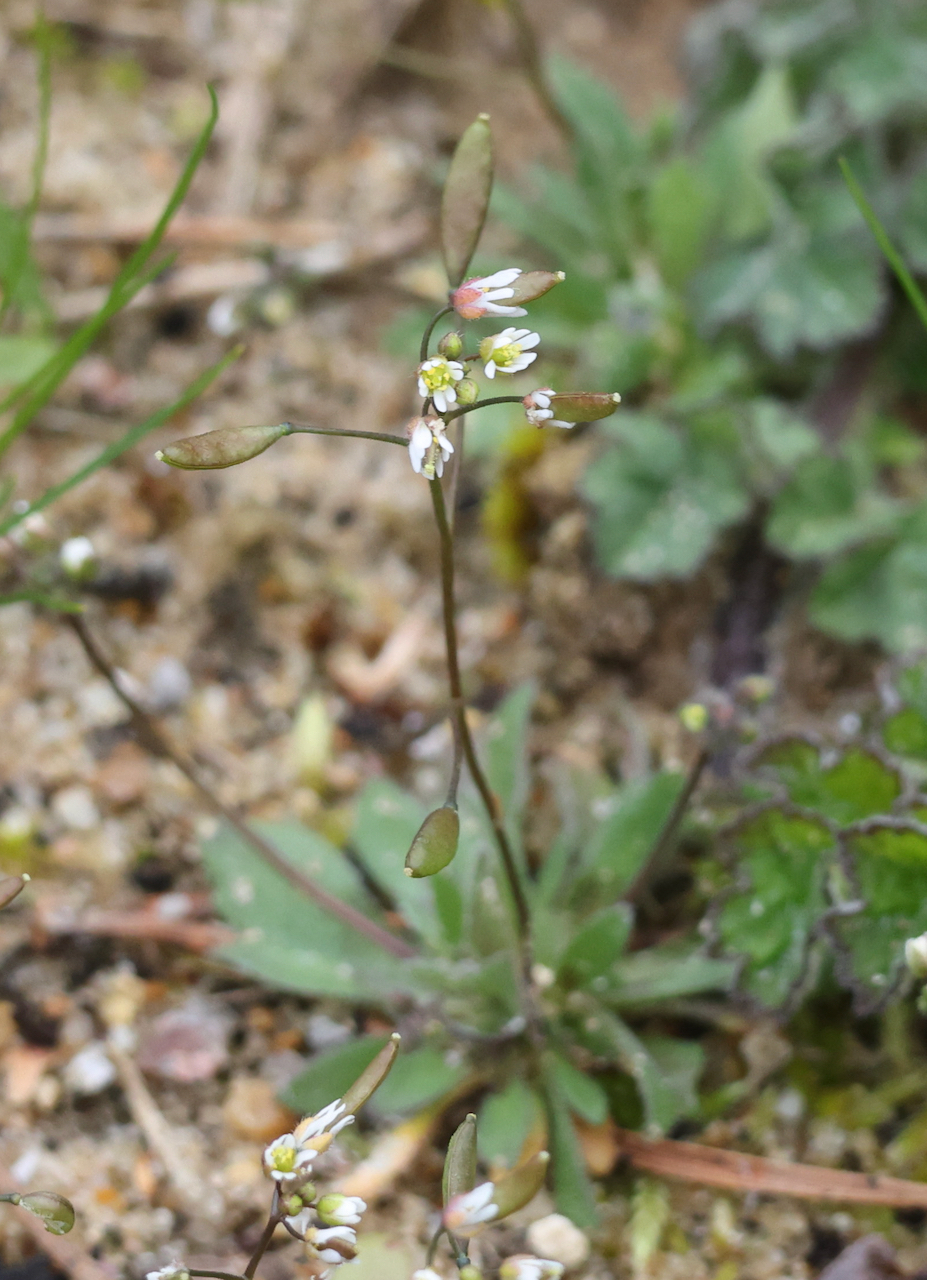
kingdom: Plantae
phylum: Tracheophyta
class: Magnoliopsida
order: Brassicales
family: Brassicaceae
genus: Draba
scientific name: Draba verna
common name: Spring draba
